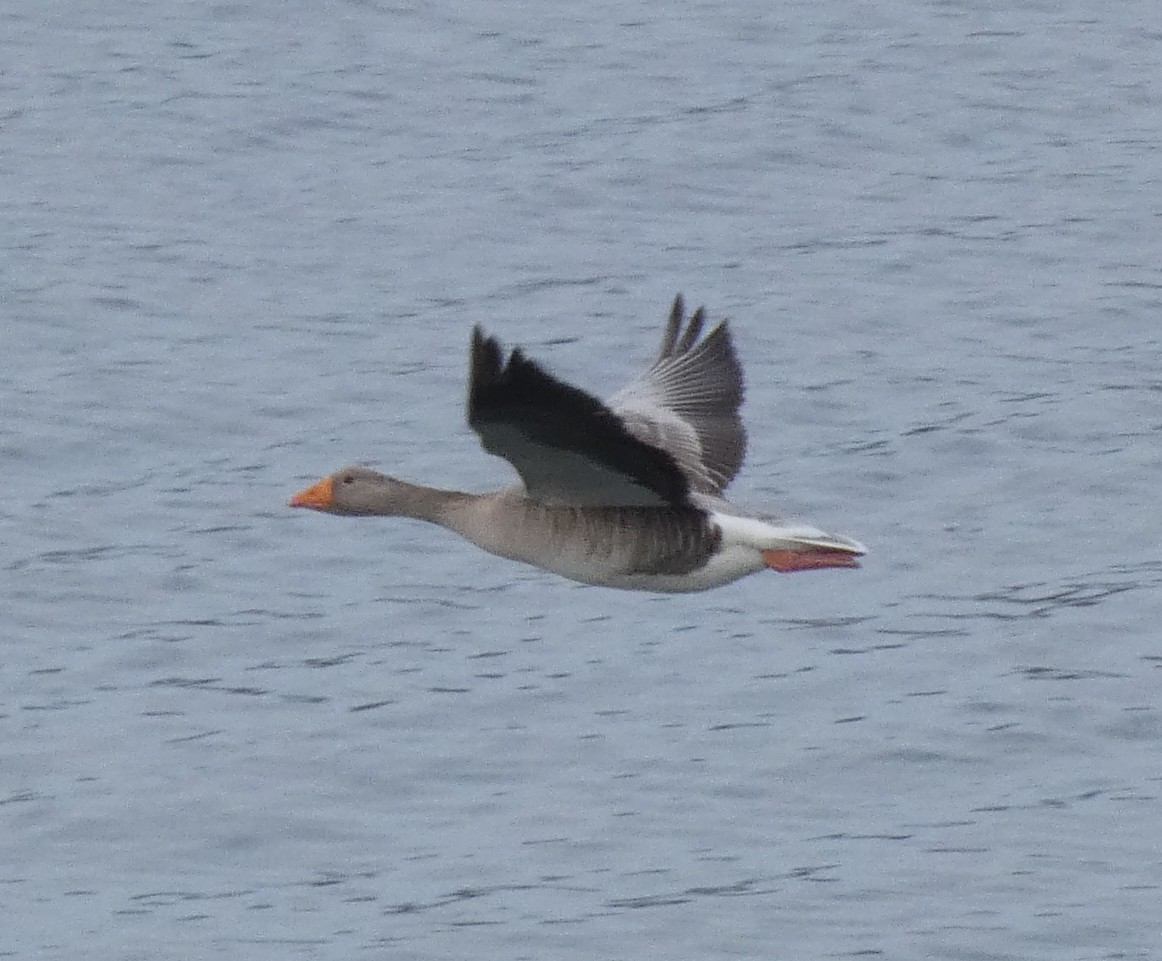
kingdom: Animalia
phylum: Chordata
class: Aves
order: Anseriformes
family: Anatidae
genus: Anser
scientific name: Anser anser
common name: Greylag goose
